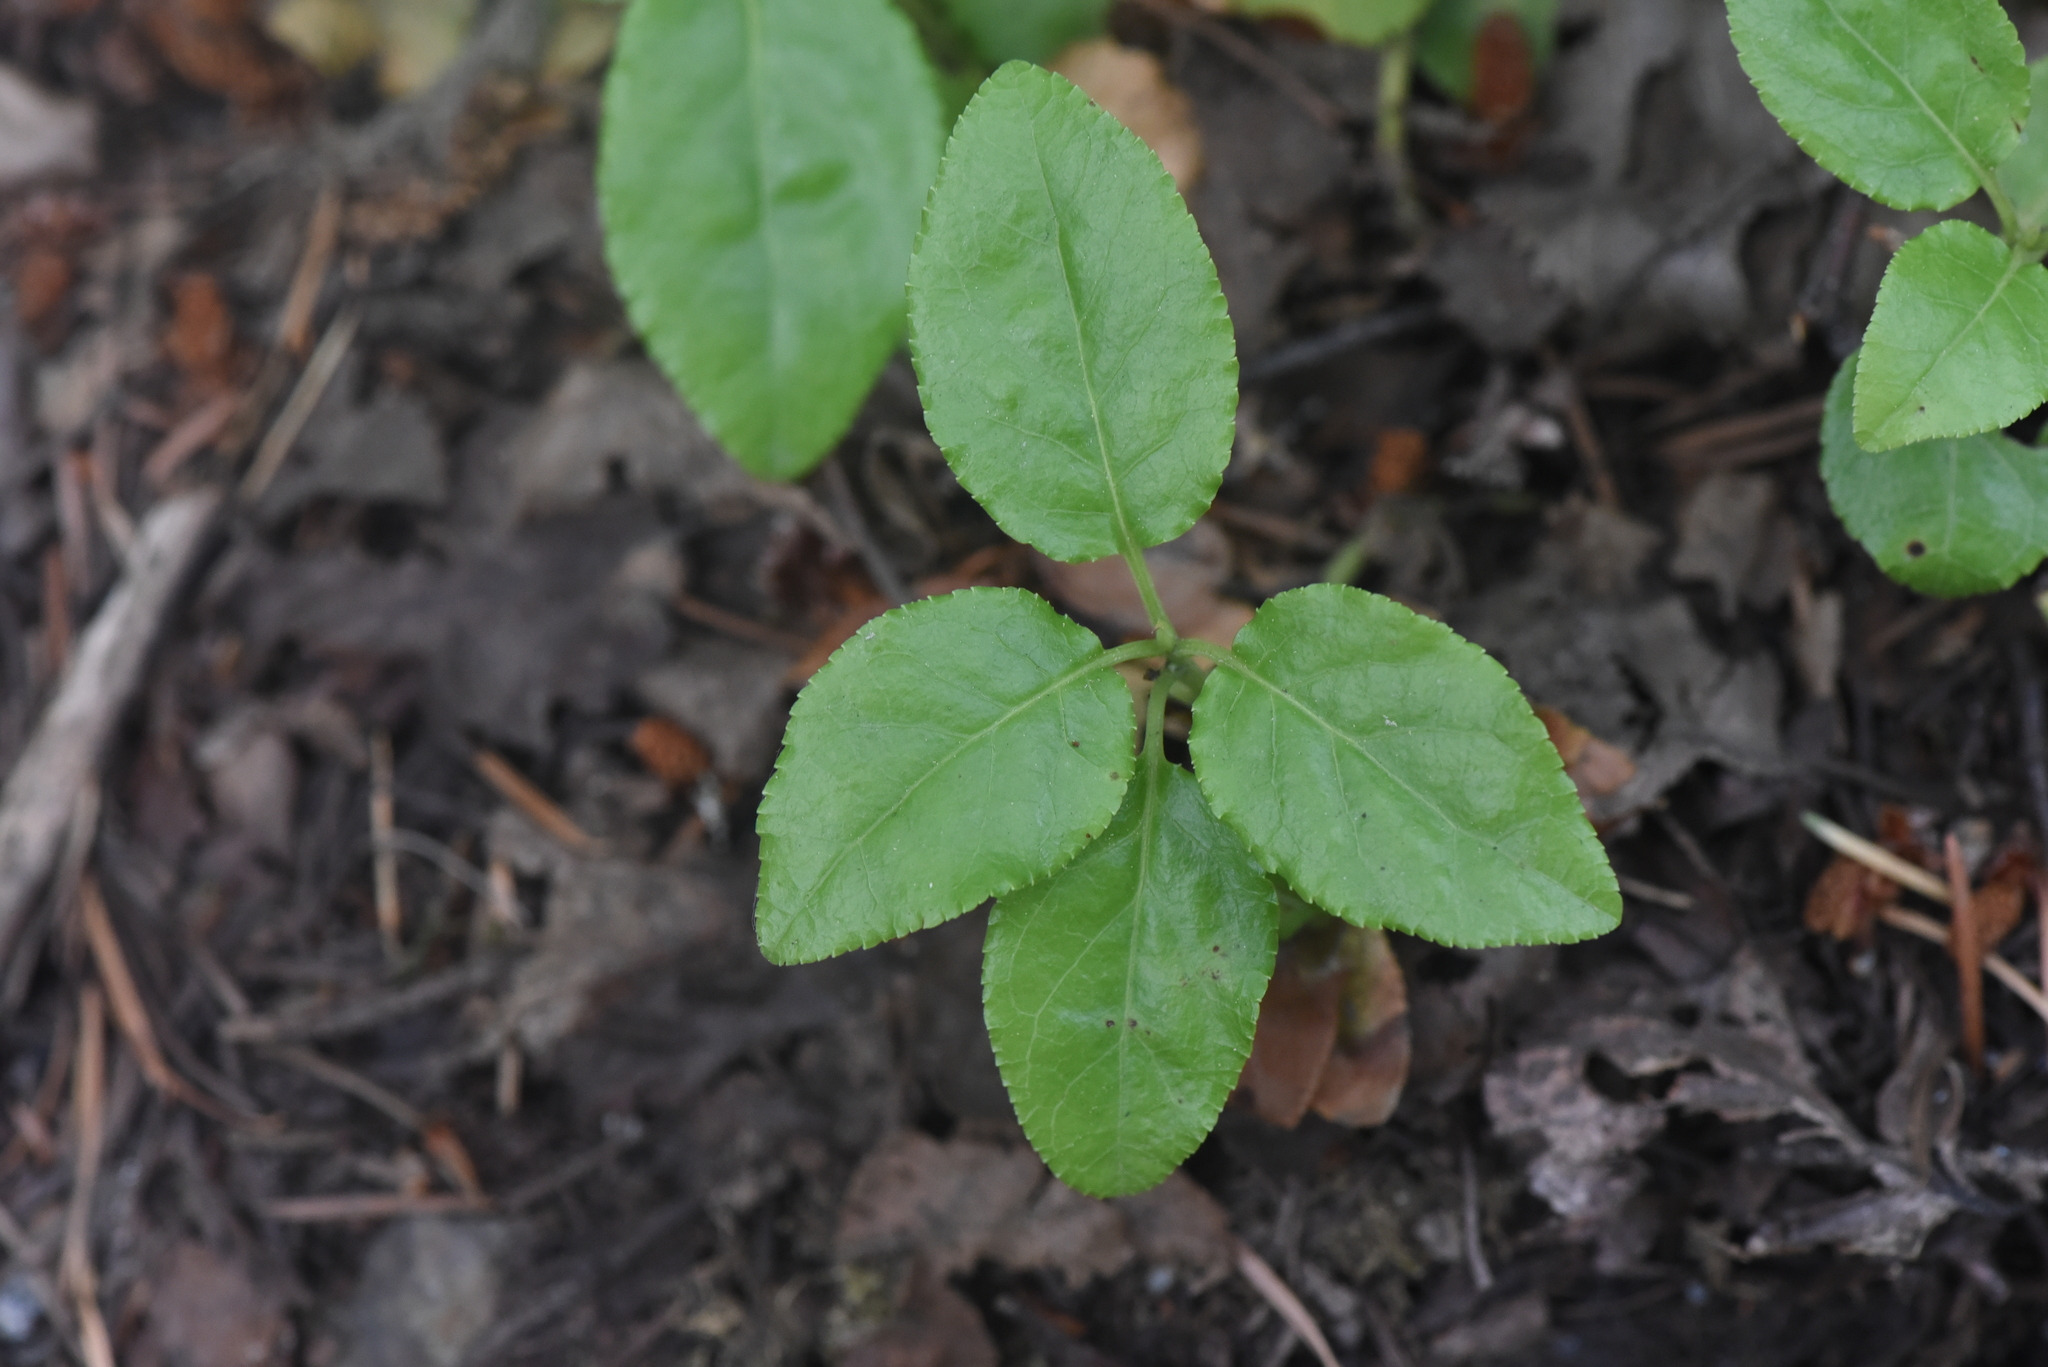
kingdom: Plantae
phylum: Tracheophyta
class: Magnoliopsida
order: Ericales
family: Ericaceae
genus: Orthilia
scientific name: Orthilia secunda
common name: One-sided orthilia
